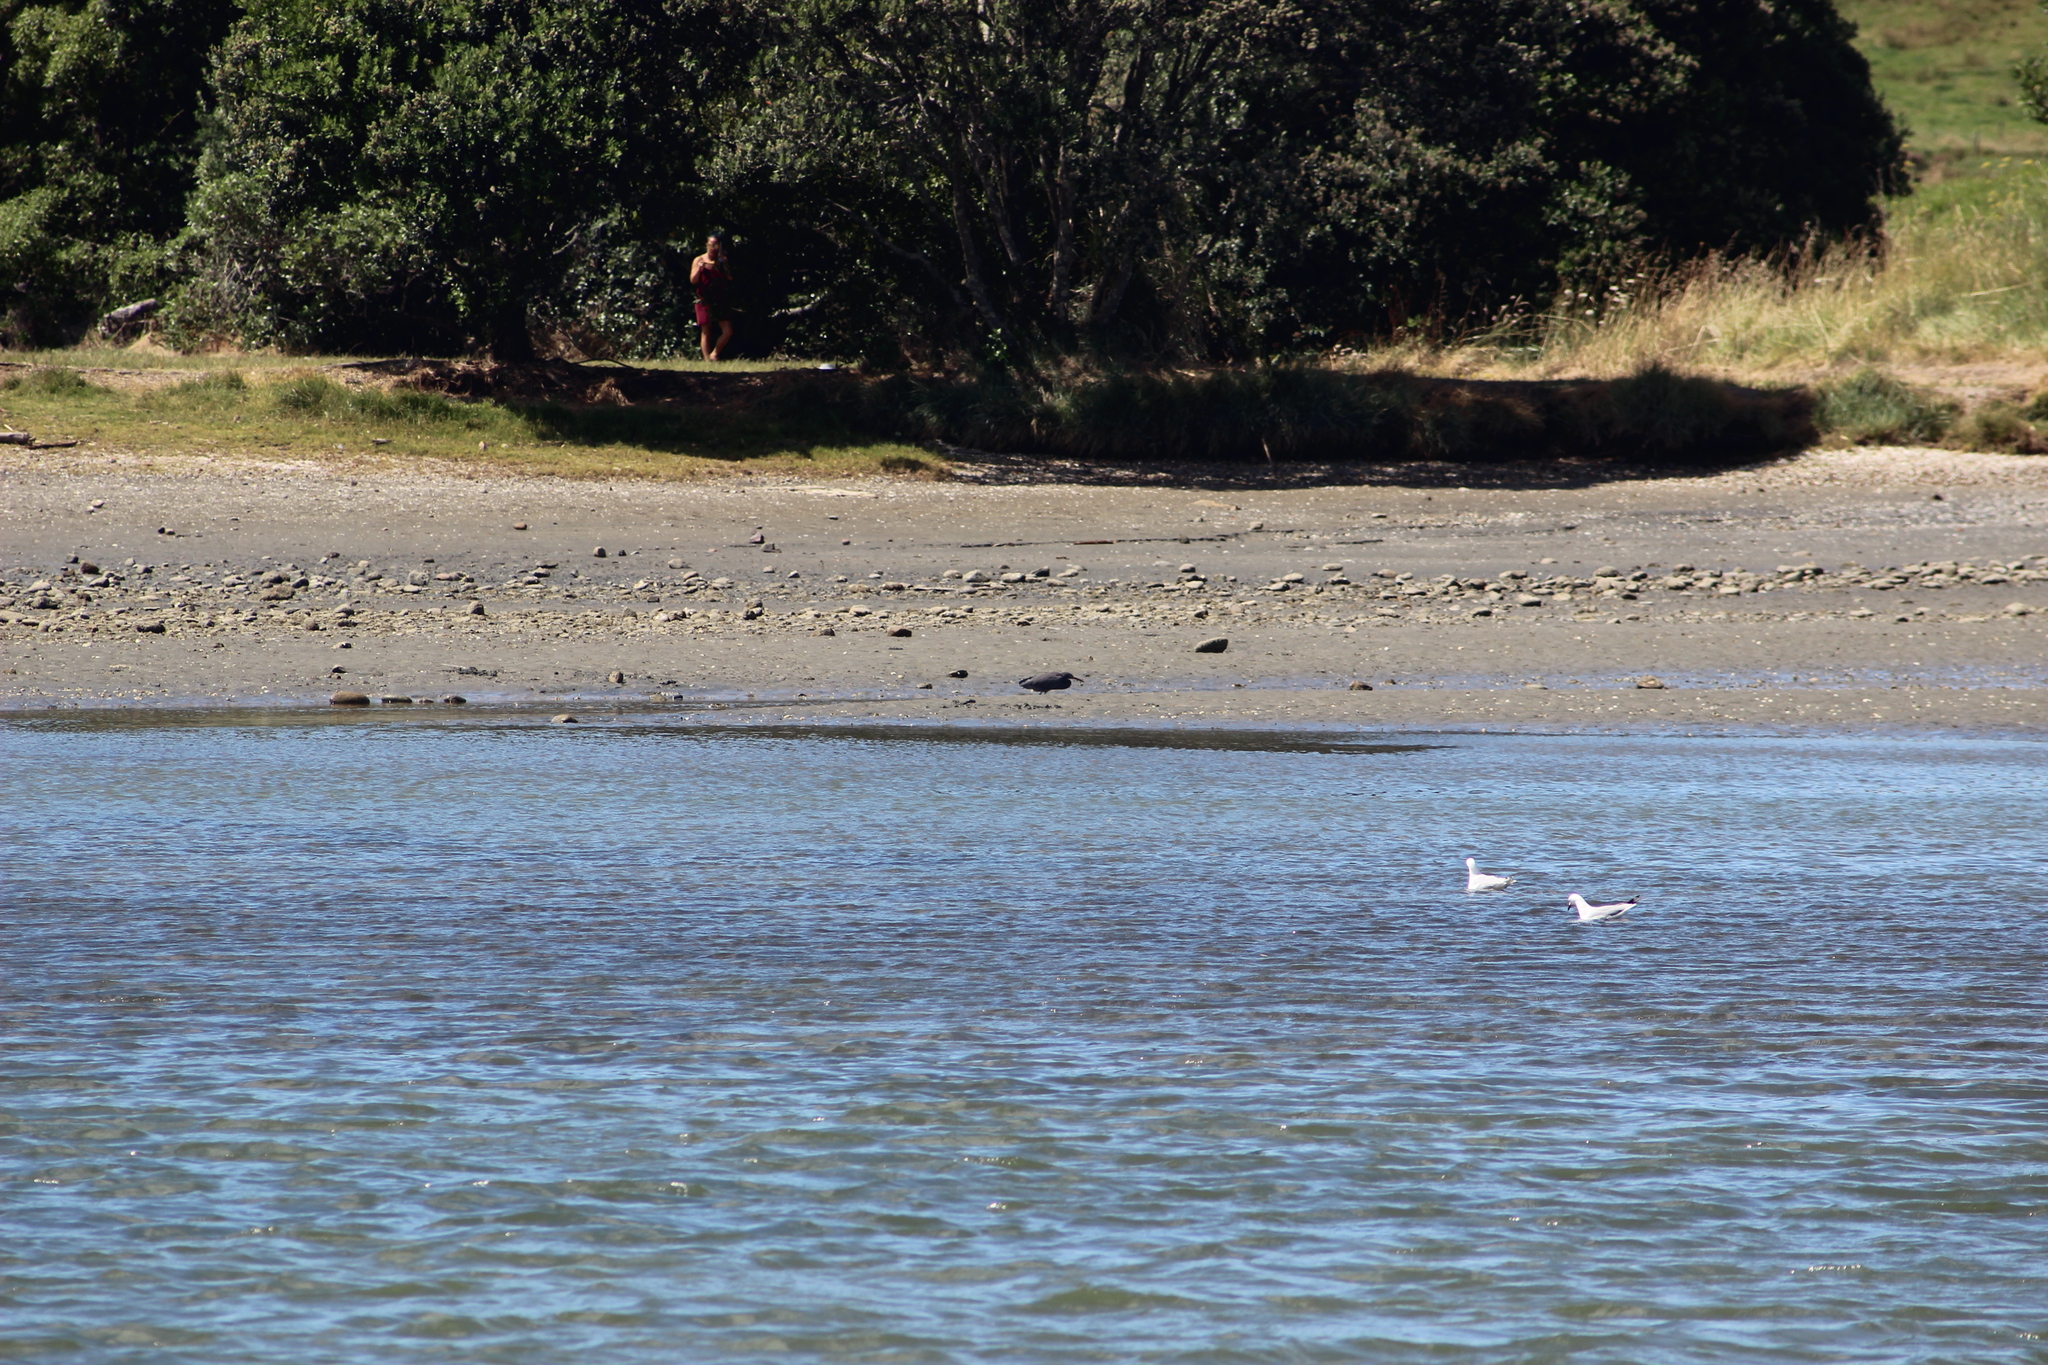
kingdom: Animalia
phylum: Chordata
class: Aves
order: Pelecaniformes
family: Ardeidae
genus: Egretta
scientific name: Egretta sacra
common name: Pacific reef heron
